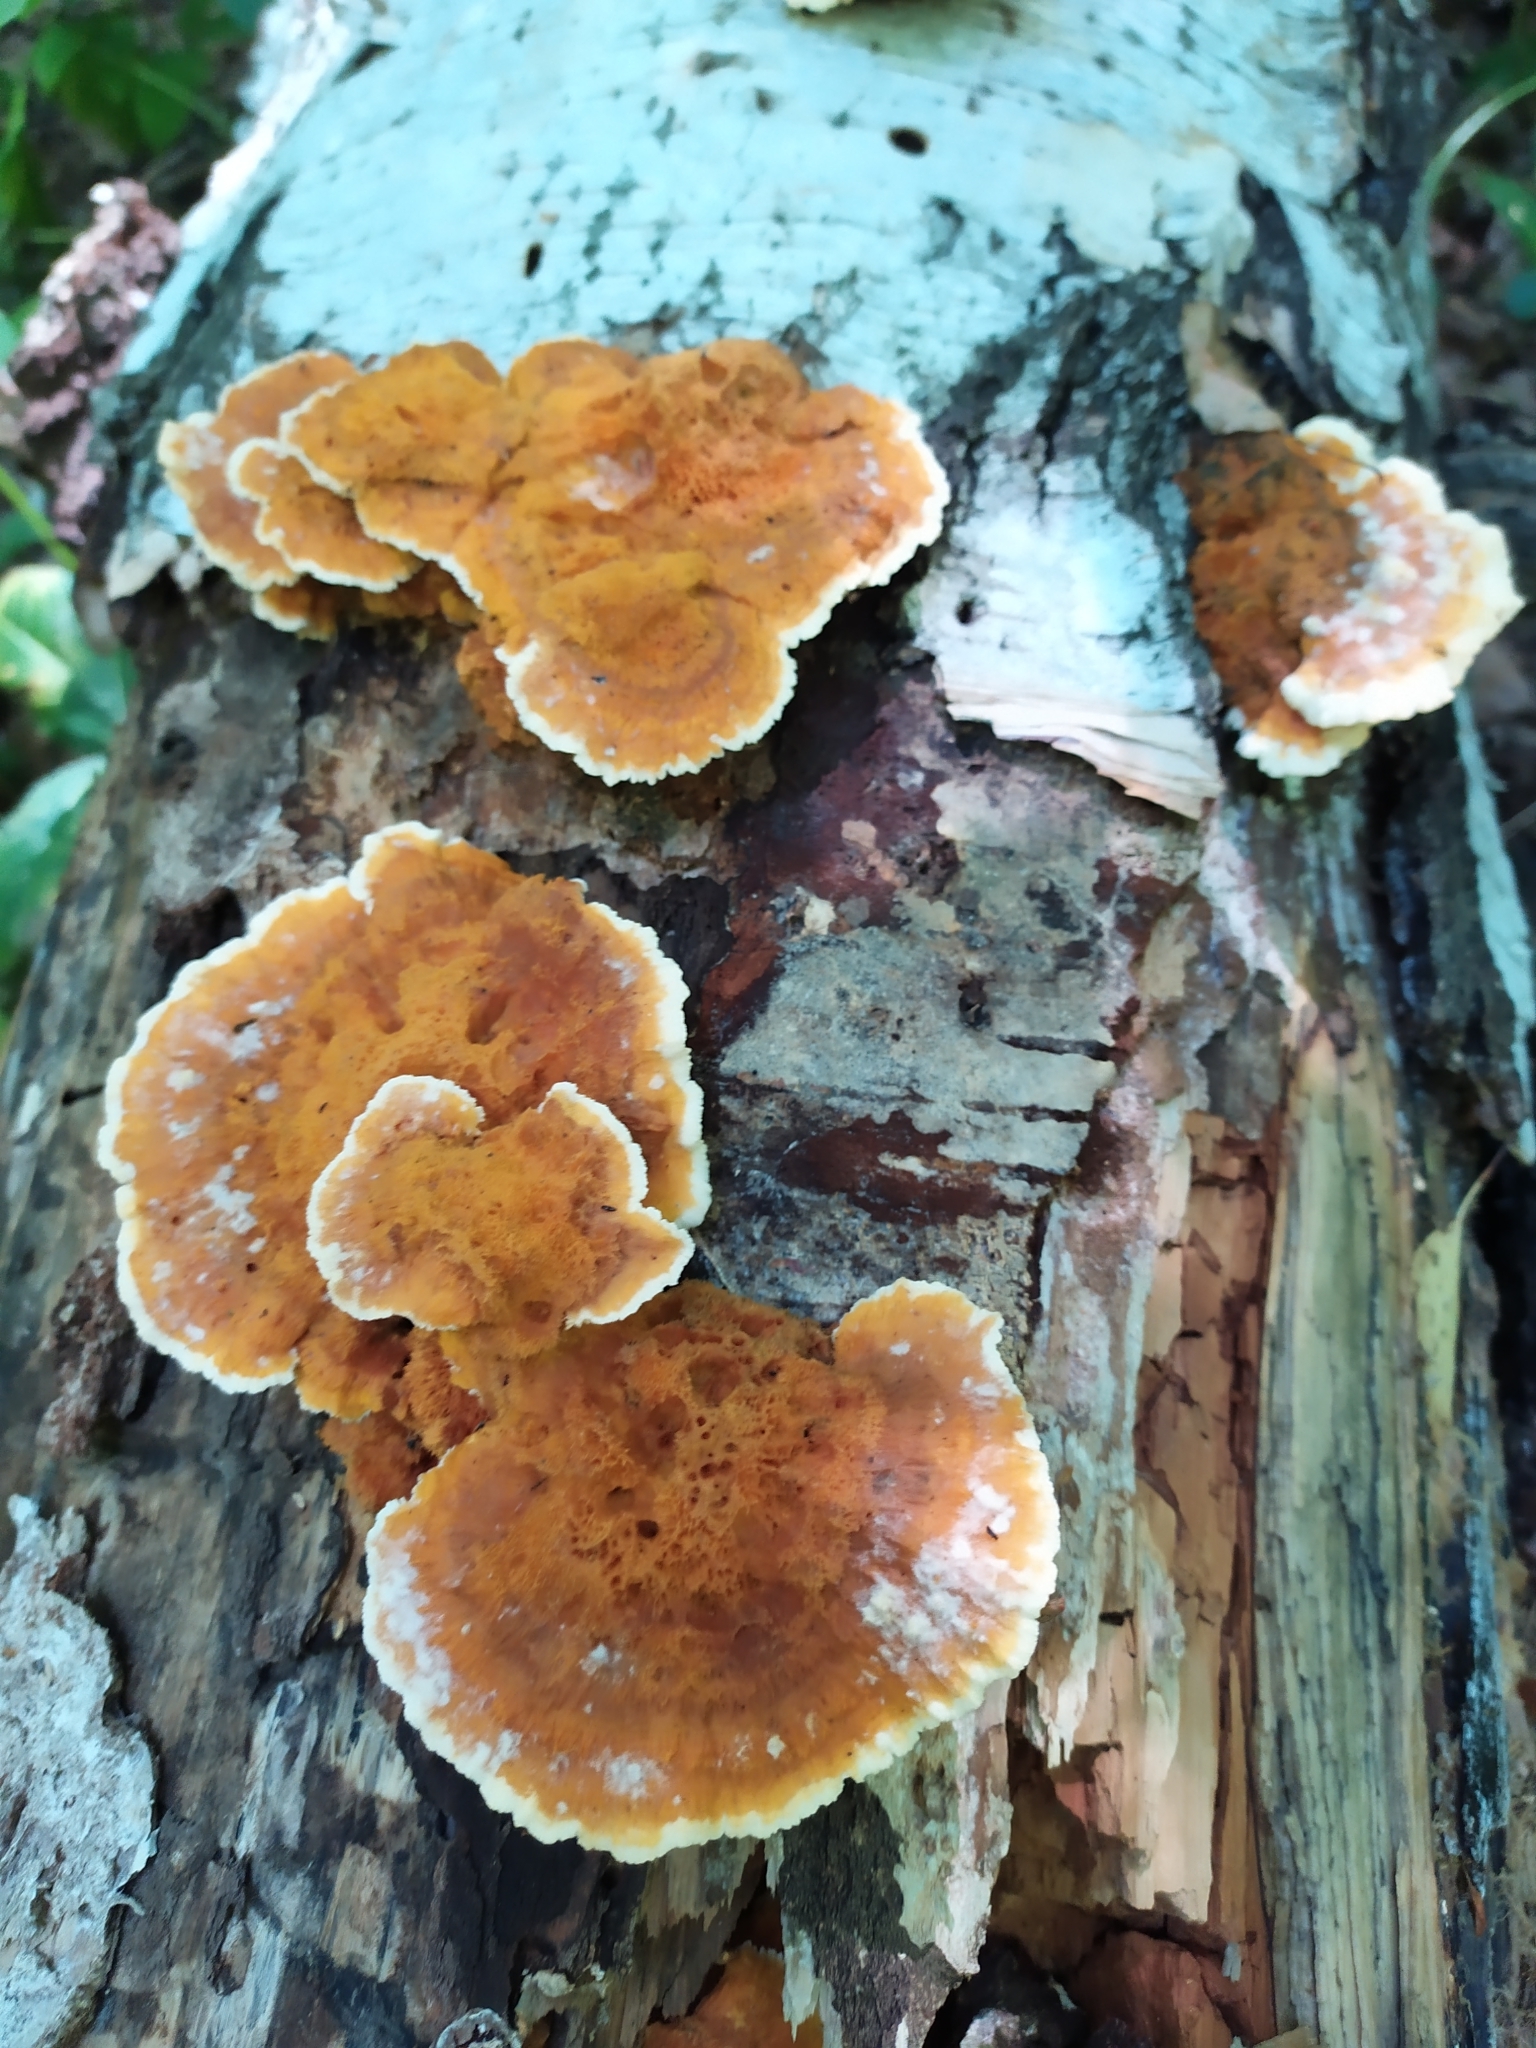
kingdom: Fungi
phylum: Basidiomycota
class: Agaricomycetes
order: Polyporales
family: Pycnoporellaceae
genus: Pycnoporellus
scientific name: Pycnoporellus fulgens
